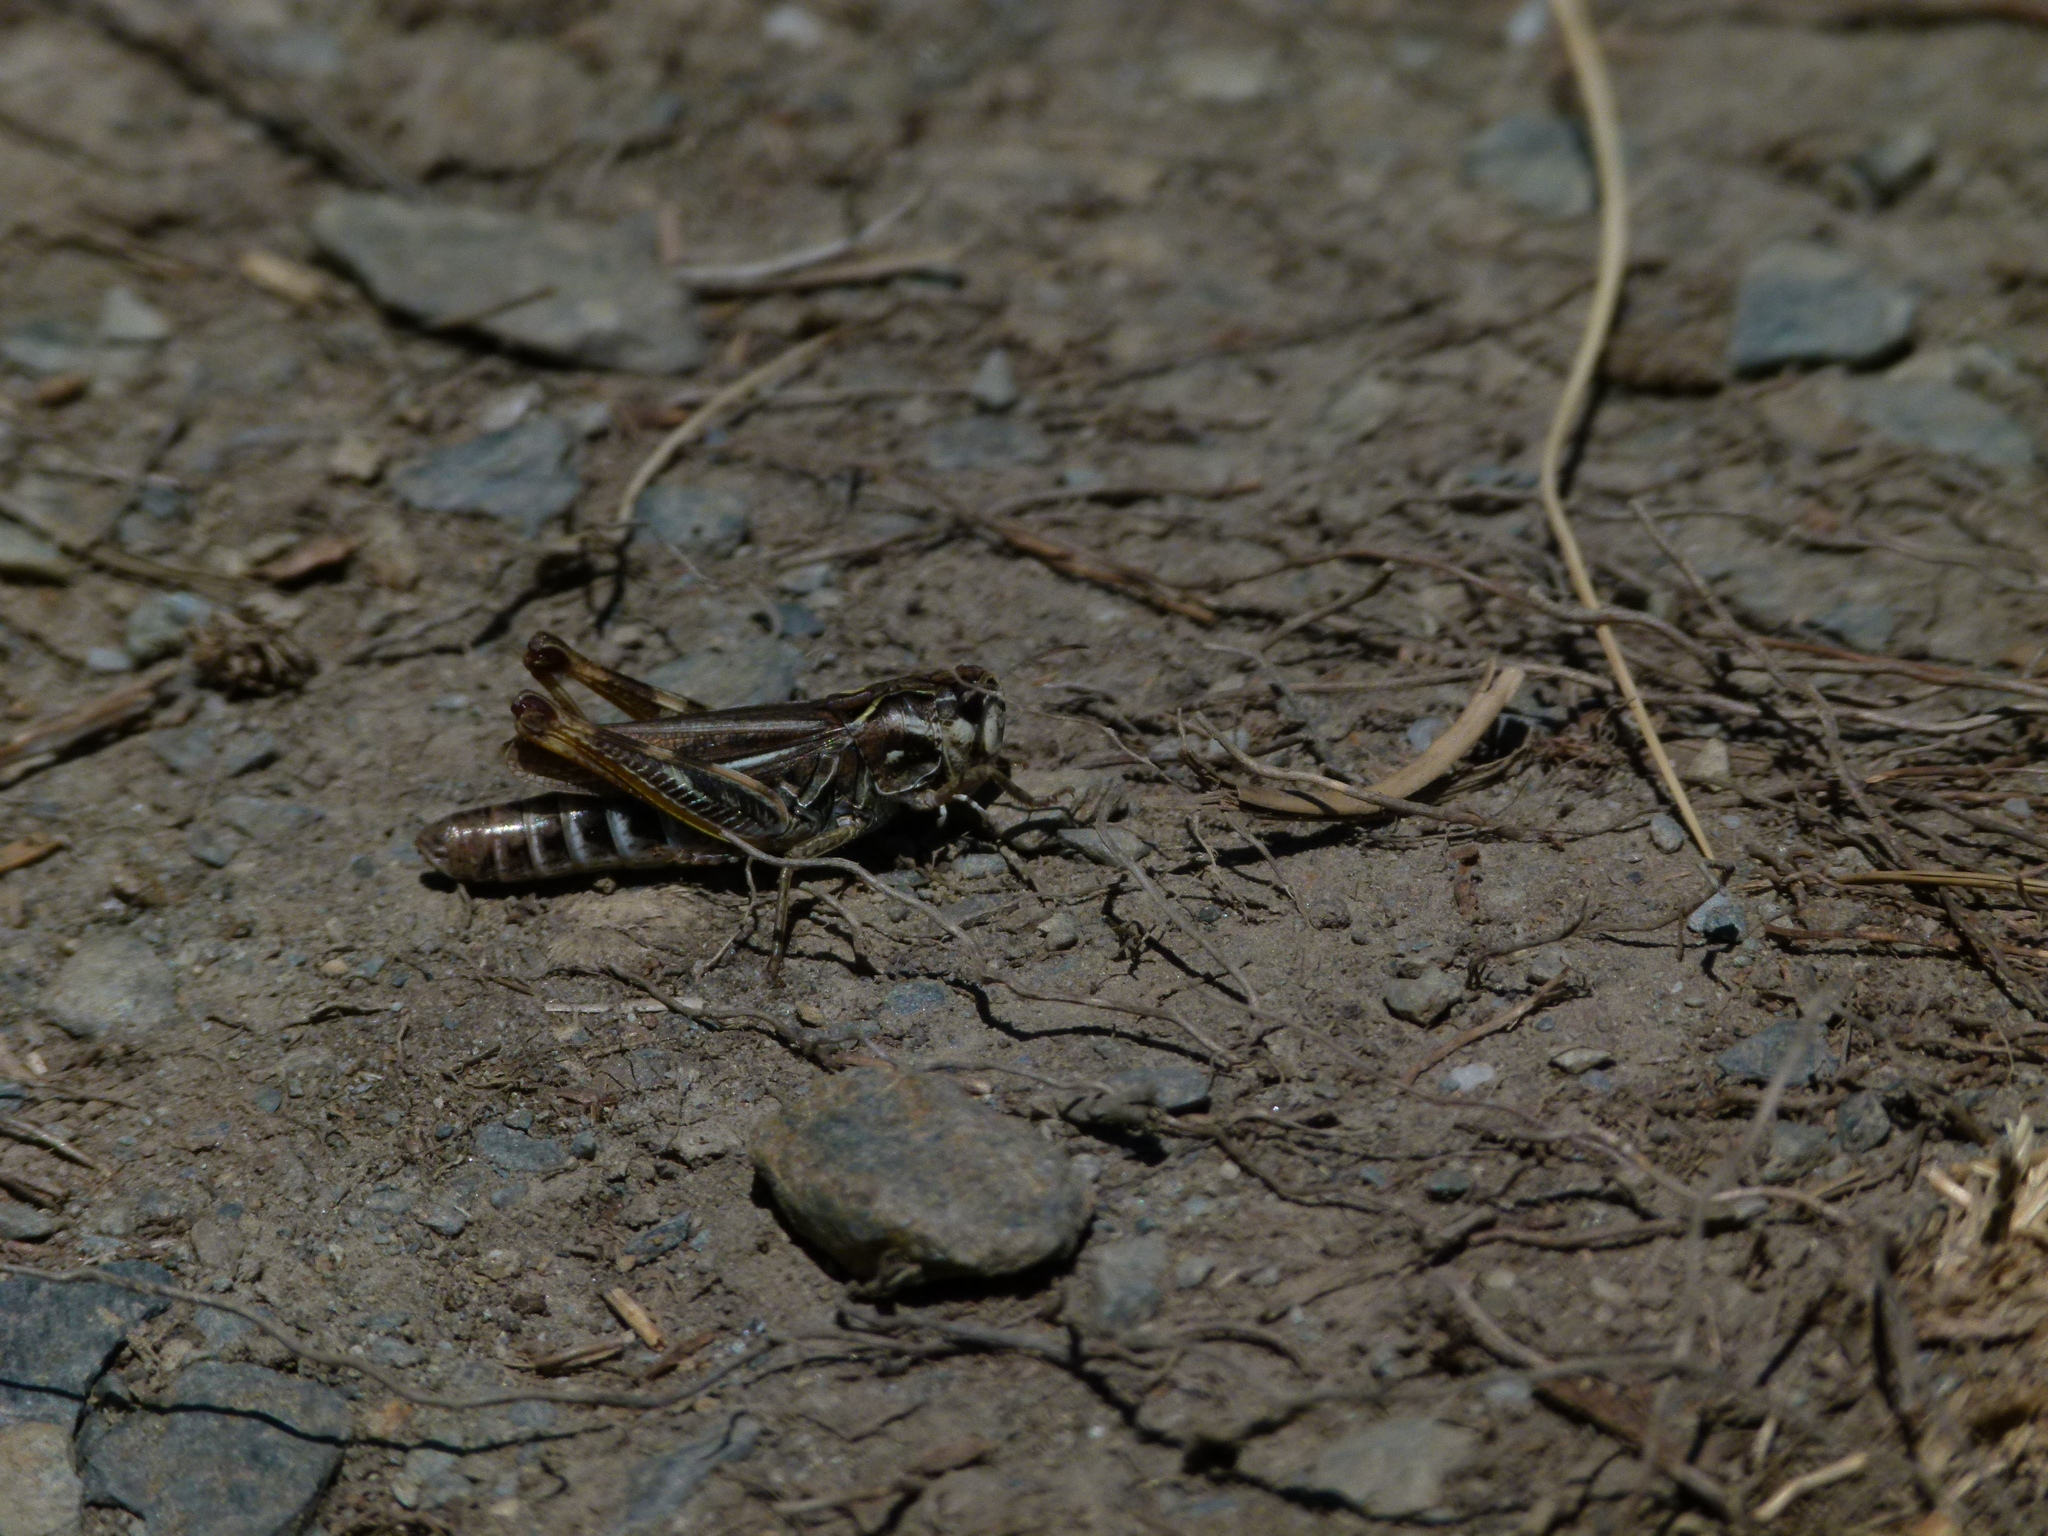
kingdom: Animalia
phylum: Arthropoda
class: Insecta
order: Orthoptera
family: Acrididae
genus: Gomphocerus
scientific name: Gomphocerus sibiricus
